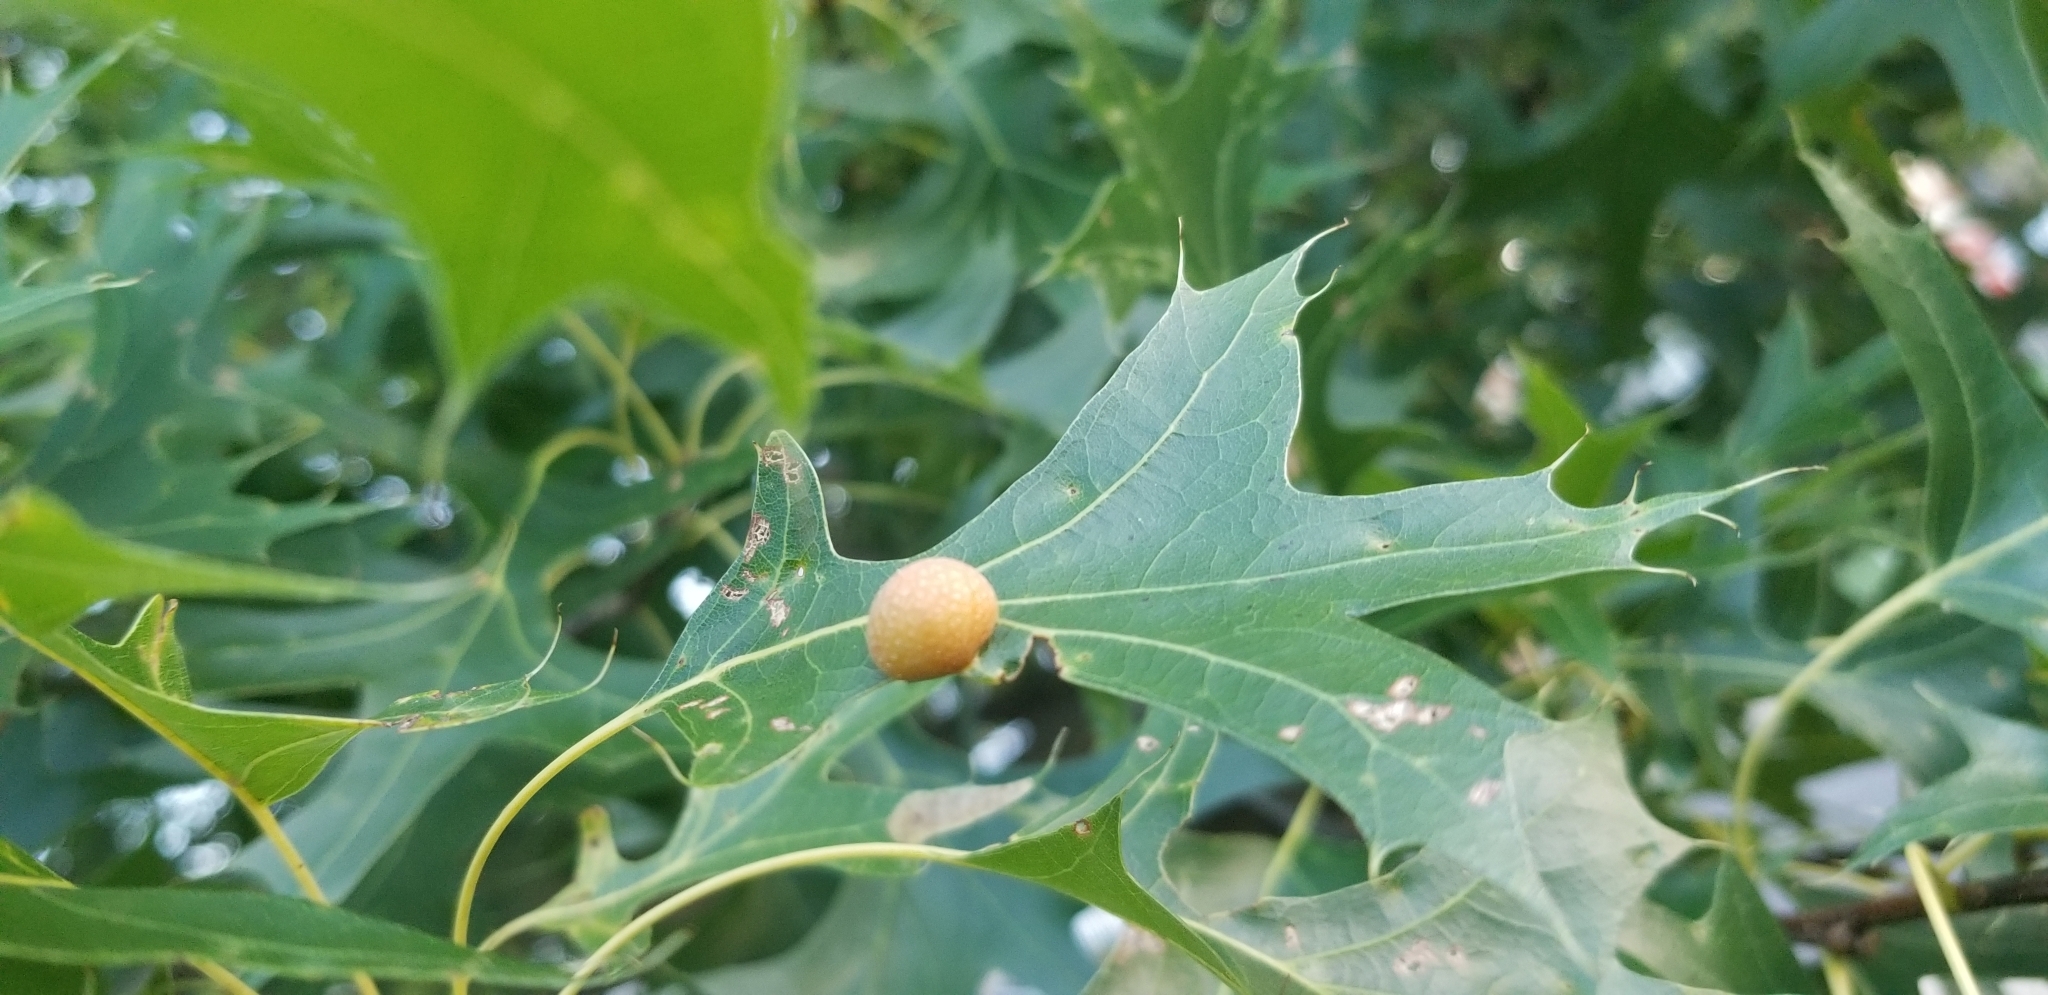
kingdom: Animalia
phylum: Arthropoda
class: Insecta
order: Diptera
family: Cecidomyiidae
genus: Polystepha
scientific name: Polystepha pilulae
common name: Oak leaf gall midge
